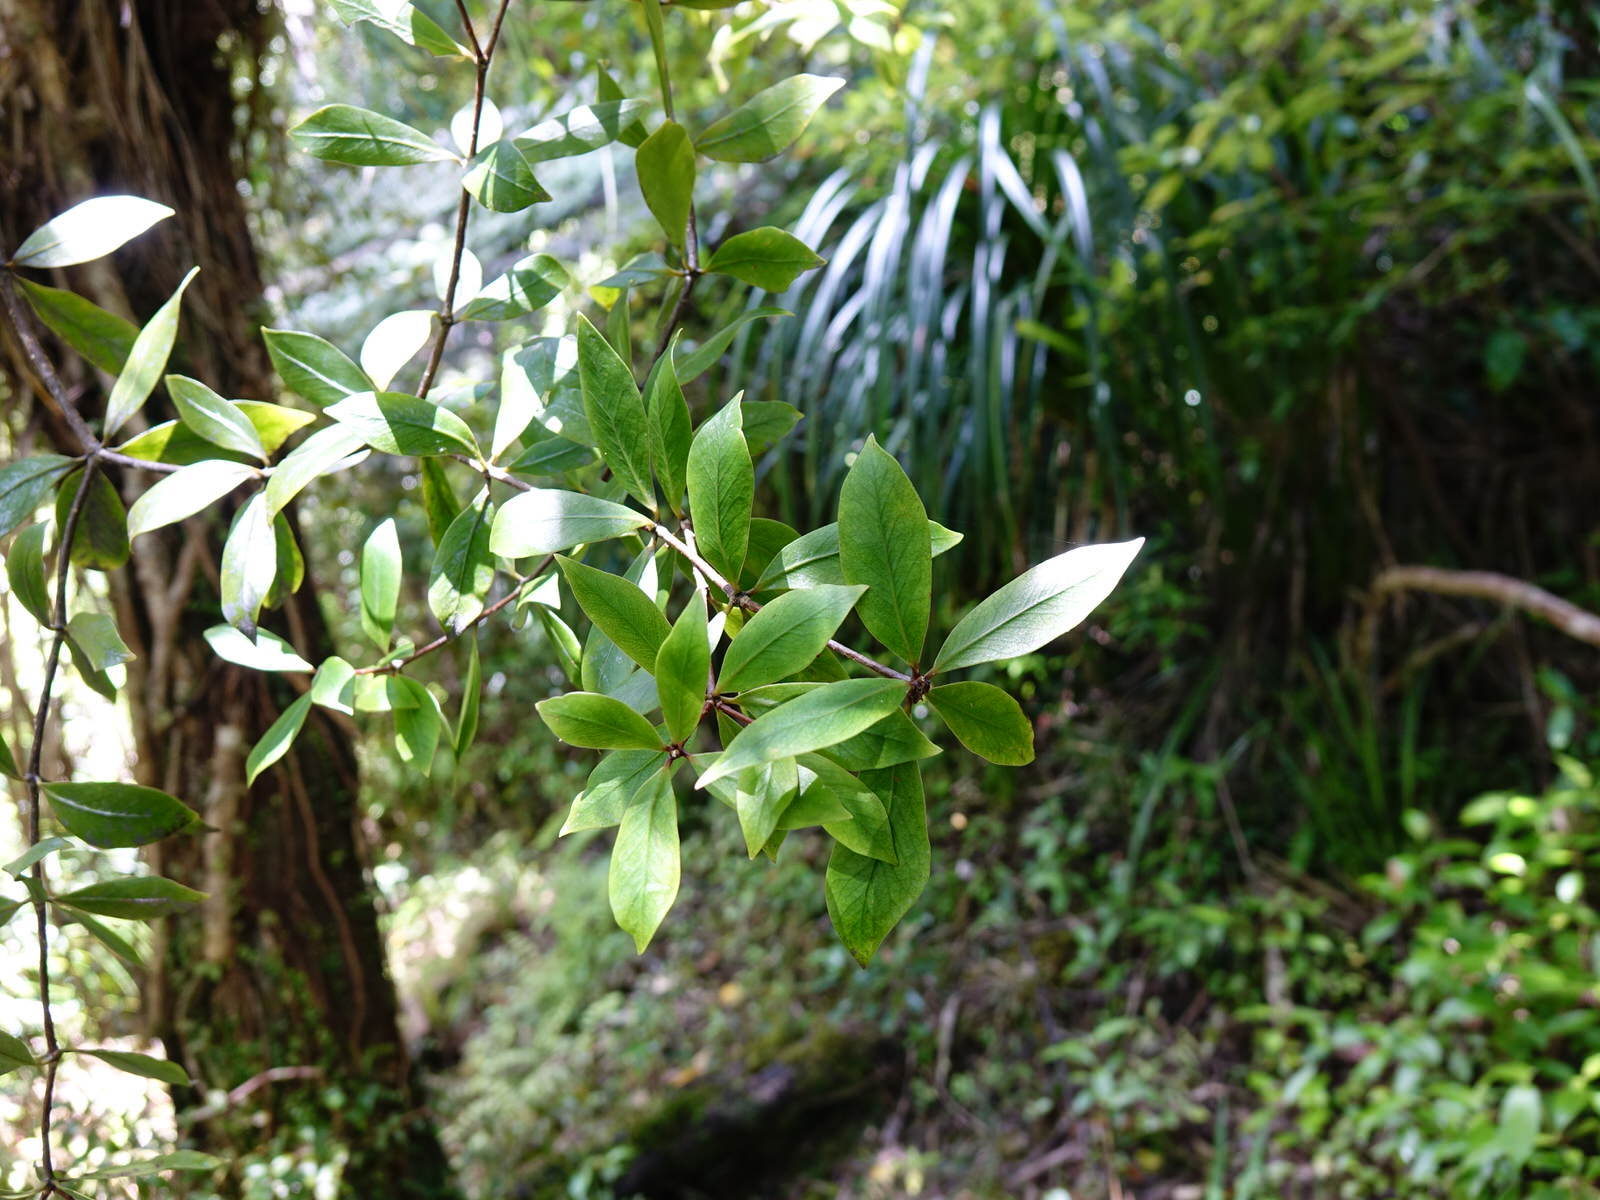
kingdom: Plantae
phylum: Tracheophyta
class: Magnoliopsida
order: Apiales
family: Pittosporaceae
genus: Pittosporum
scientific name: Pittosporum cornifolium
